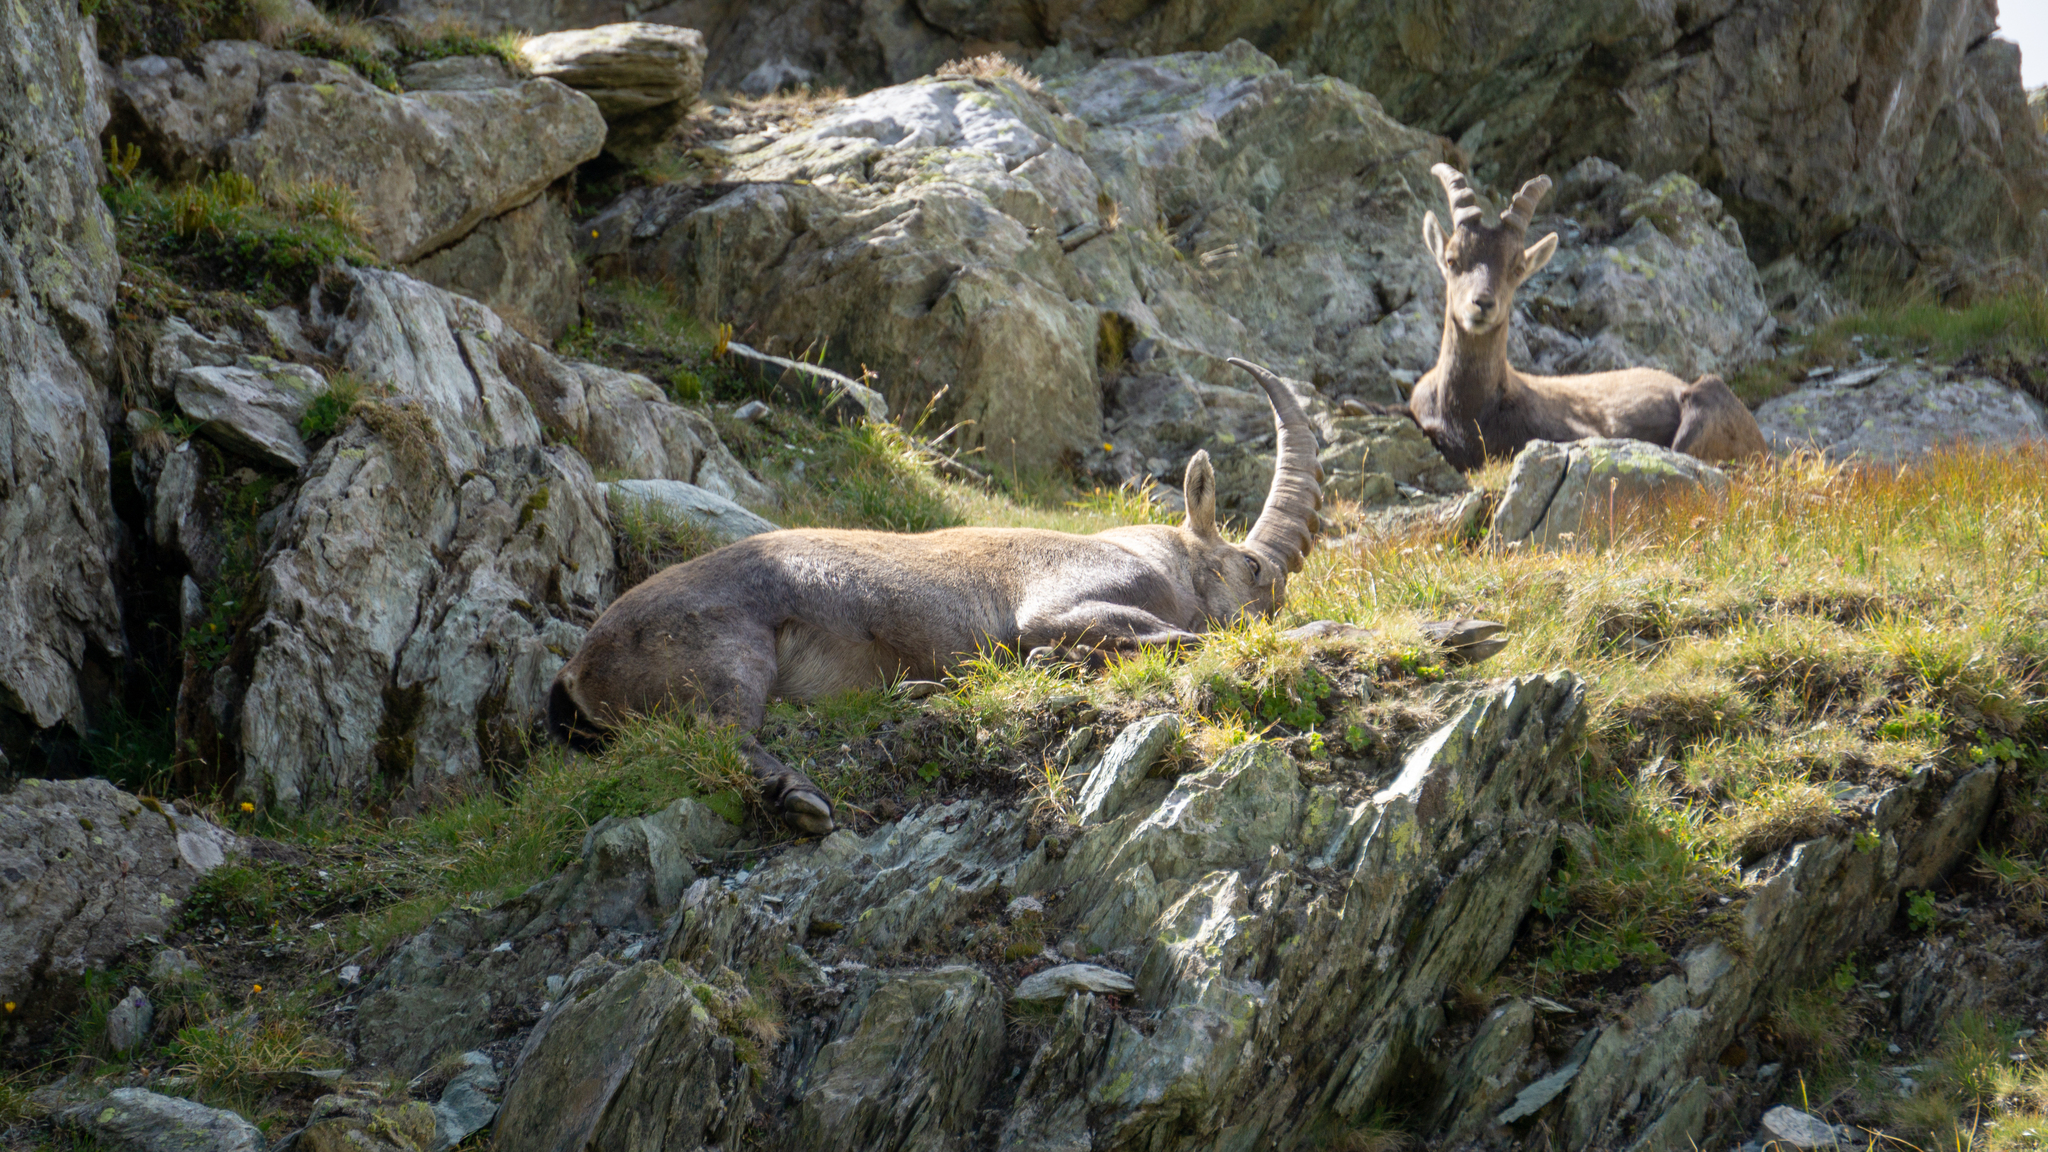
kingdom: Animalia
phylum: Chordata
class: Mammalia
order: Artiodactyla
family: Bovidae
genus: Capra
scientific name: Capra ibex
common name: Alpine ibex
